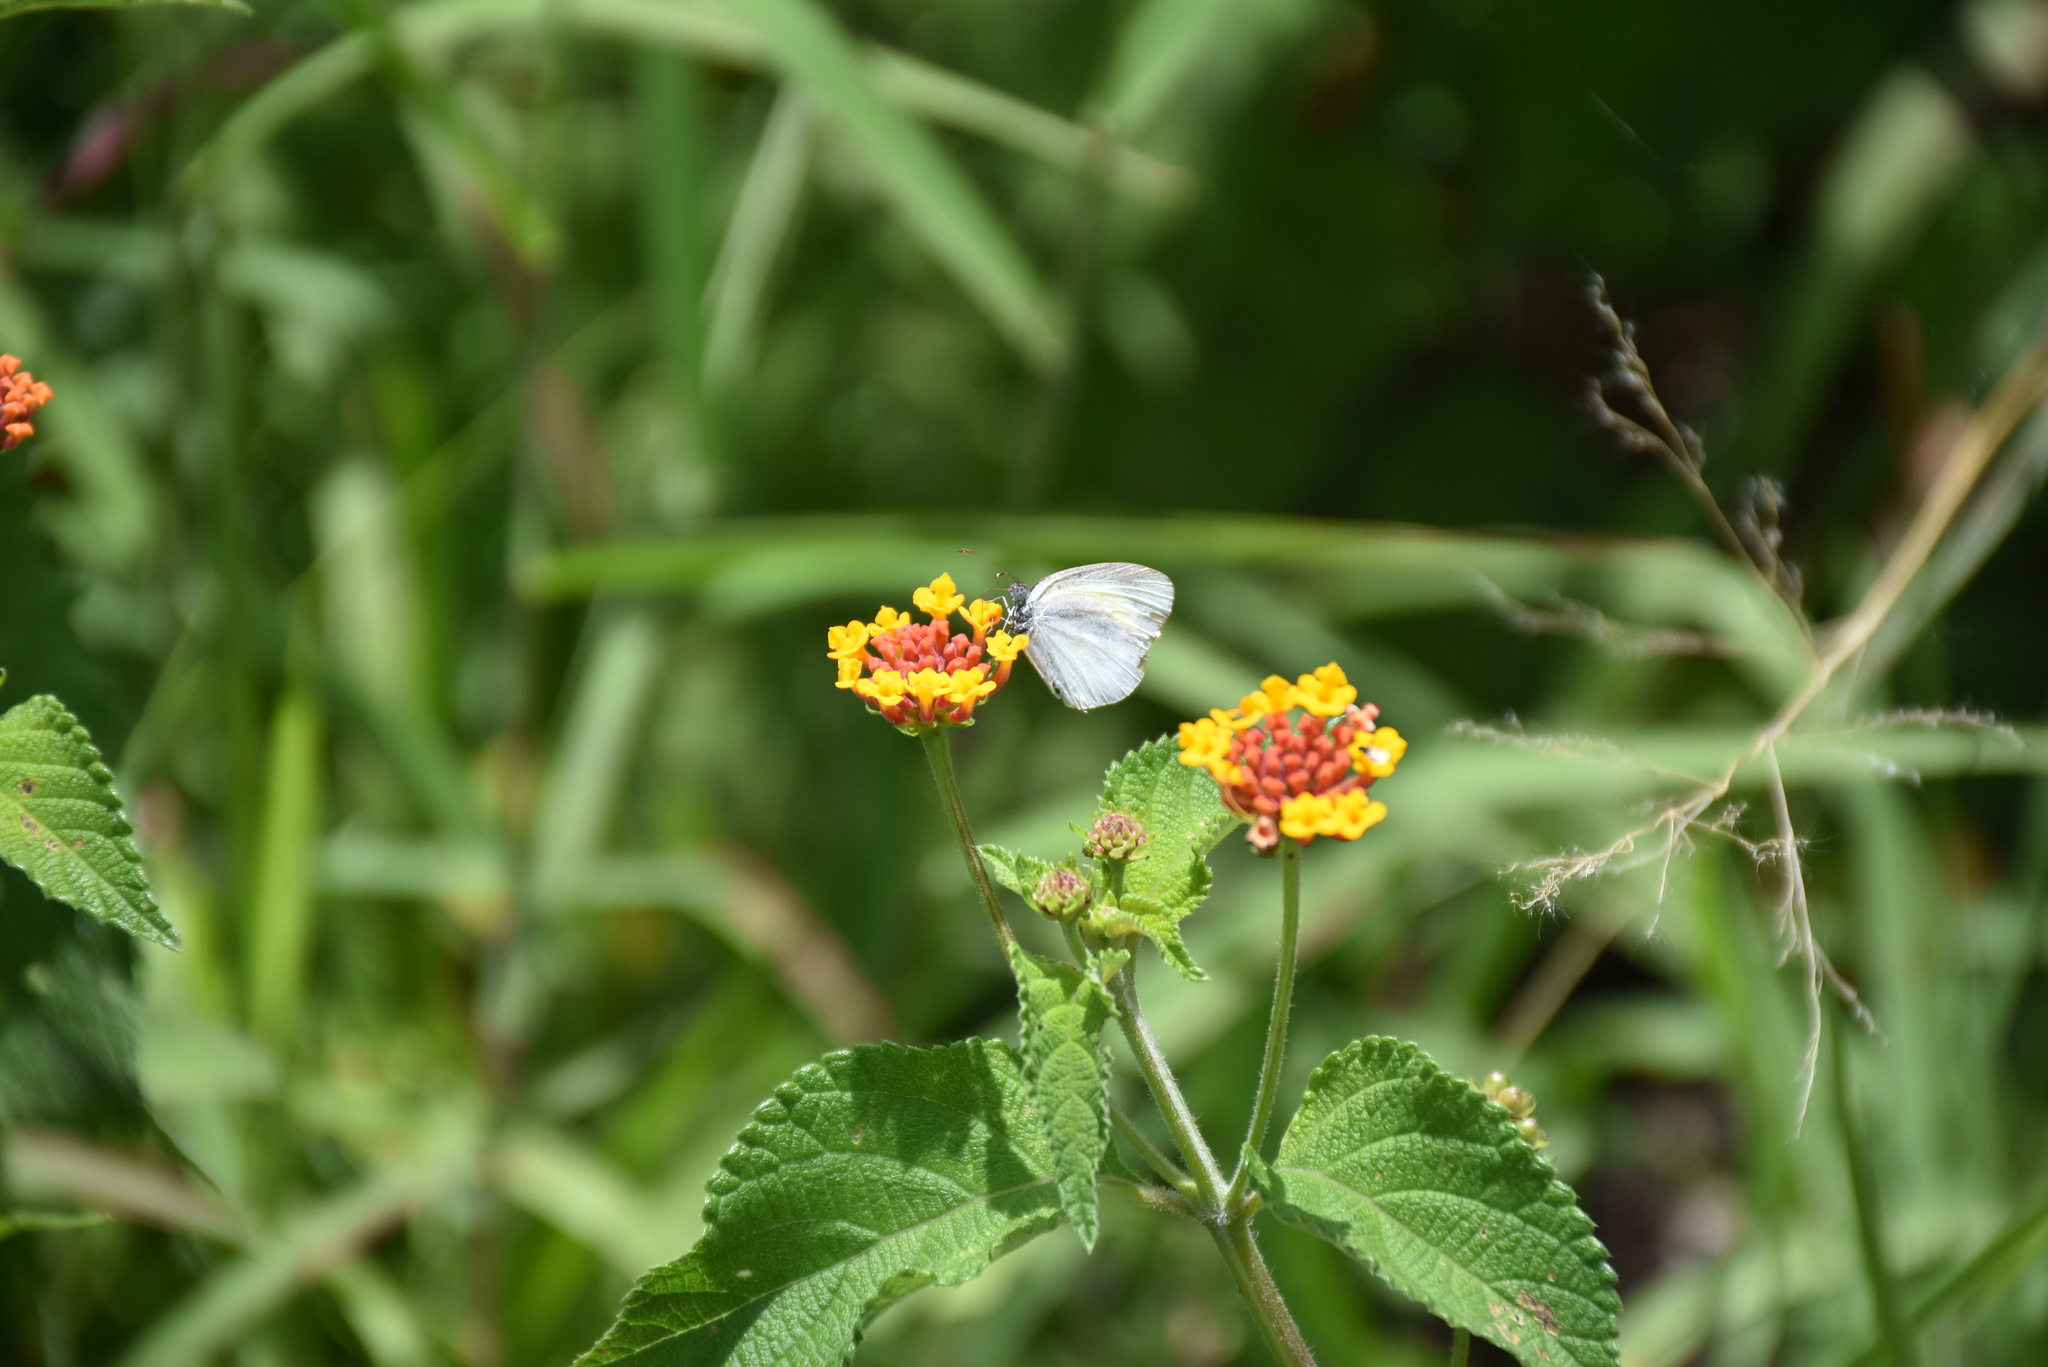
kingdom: Animalia
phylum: Arthropoda
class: Insecta
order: Lepidoptera
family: Pieridae
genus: Eurema
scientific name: Eurema daira
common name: Barred sulphur
